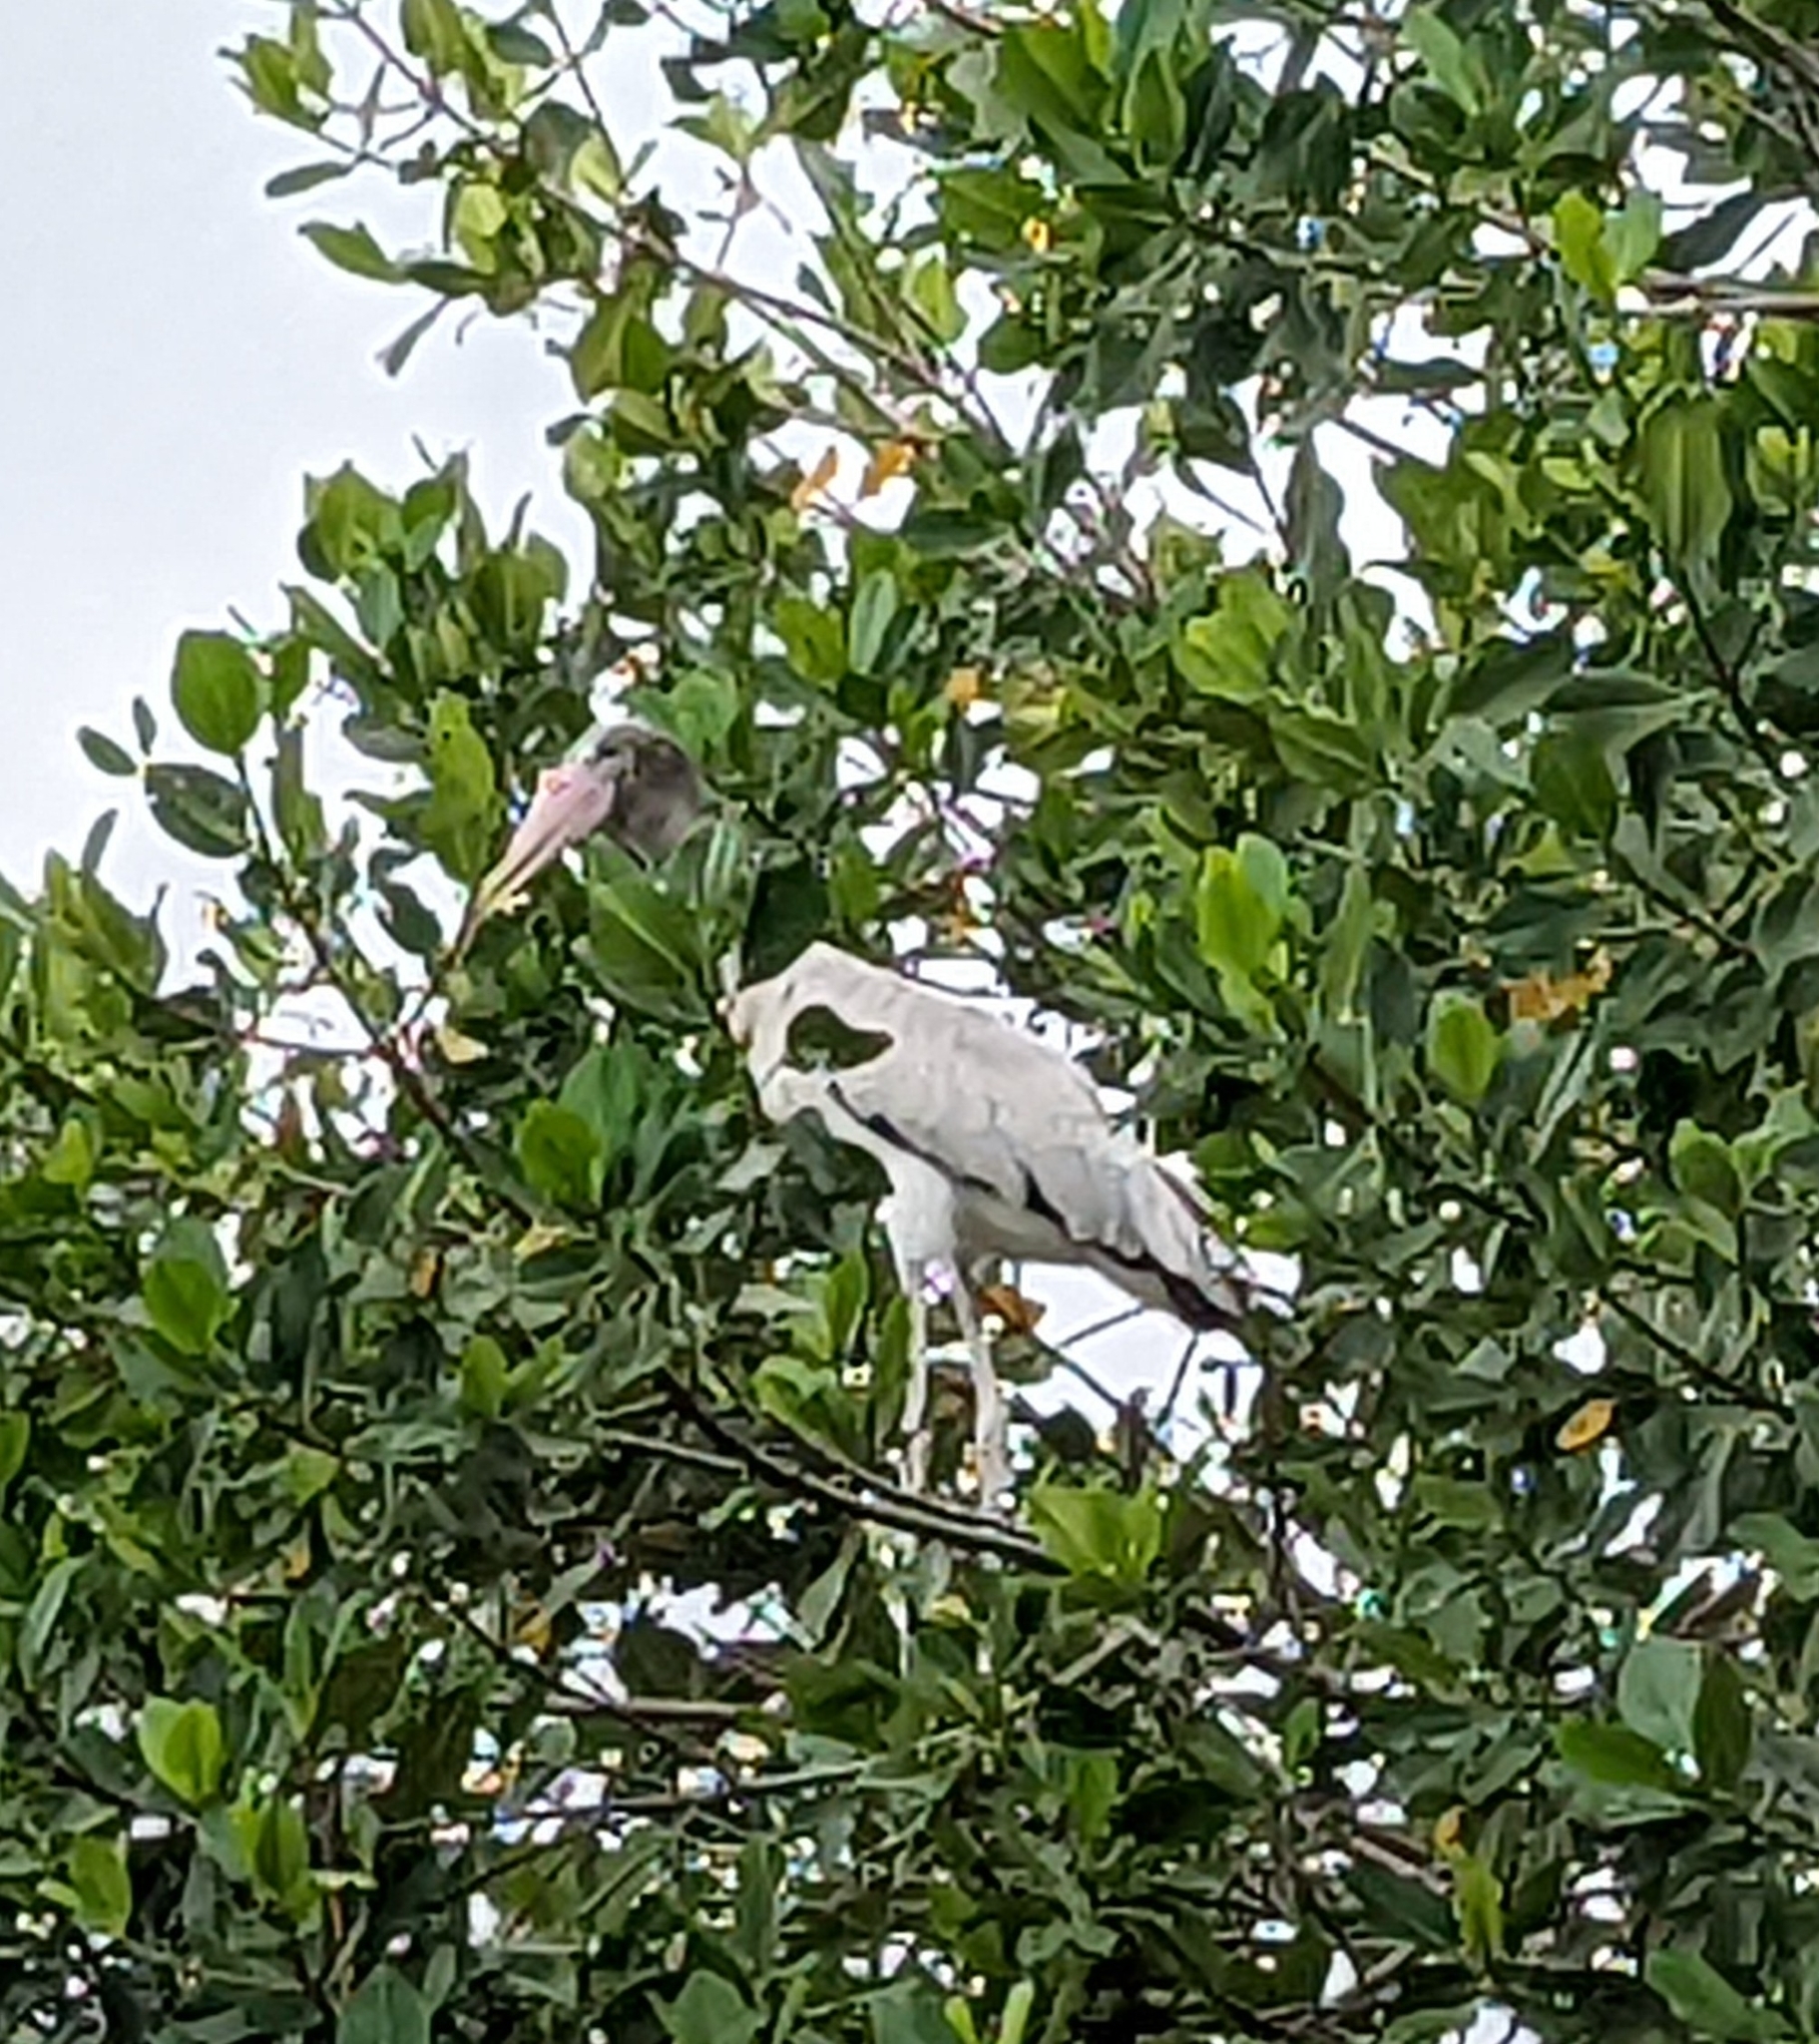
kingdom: Animalia
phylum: Chordata
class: Aves
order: Ciconiiformes
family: Ciconiidae
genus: Mycteria
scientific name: Mycteria americana
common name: Wood stork
